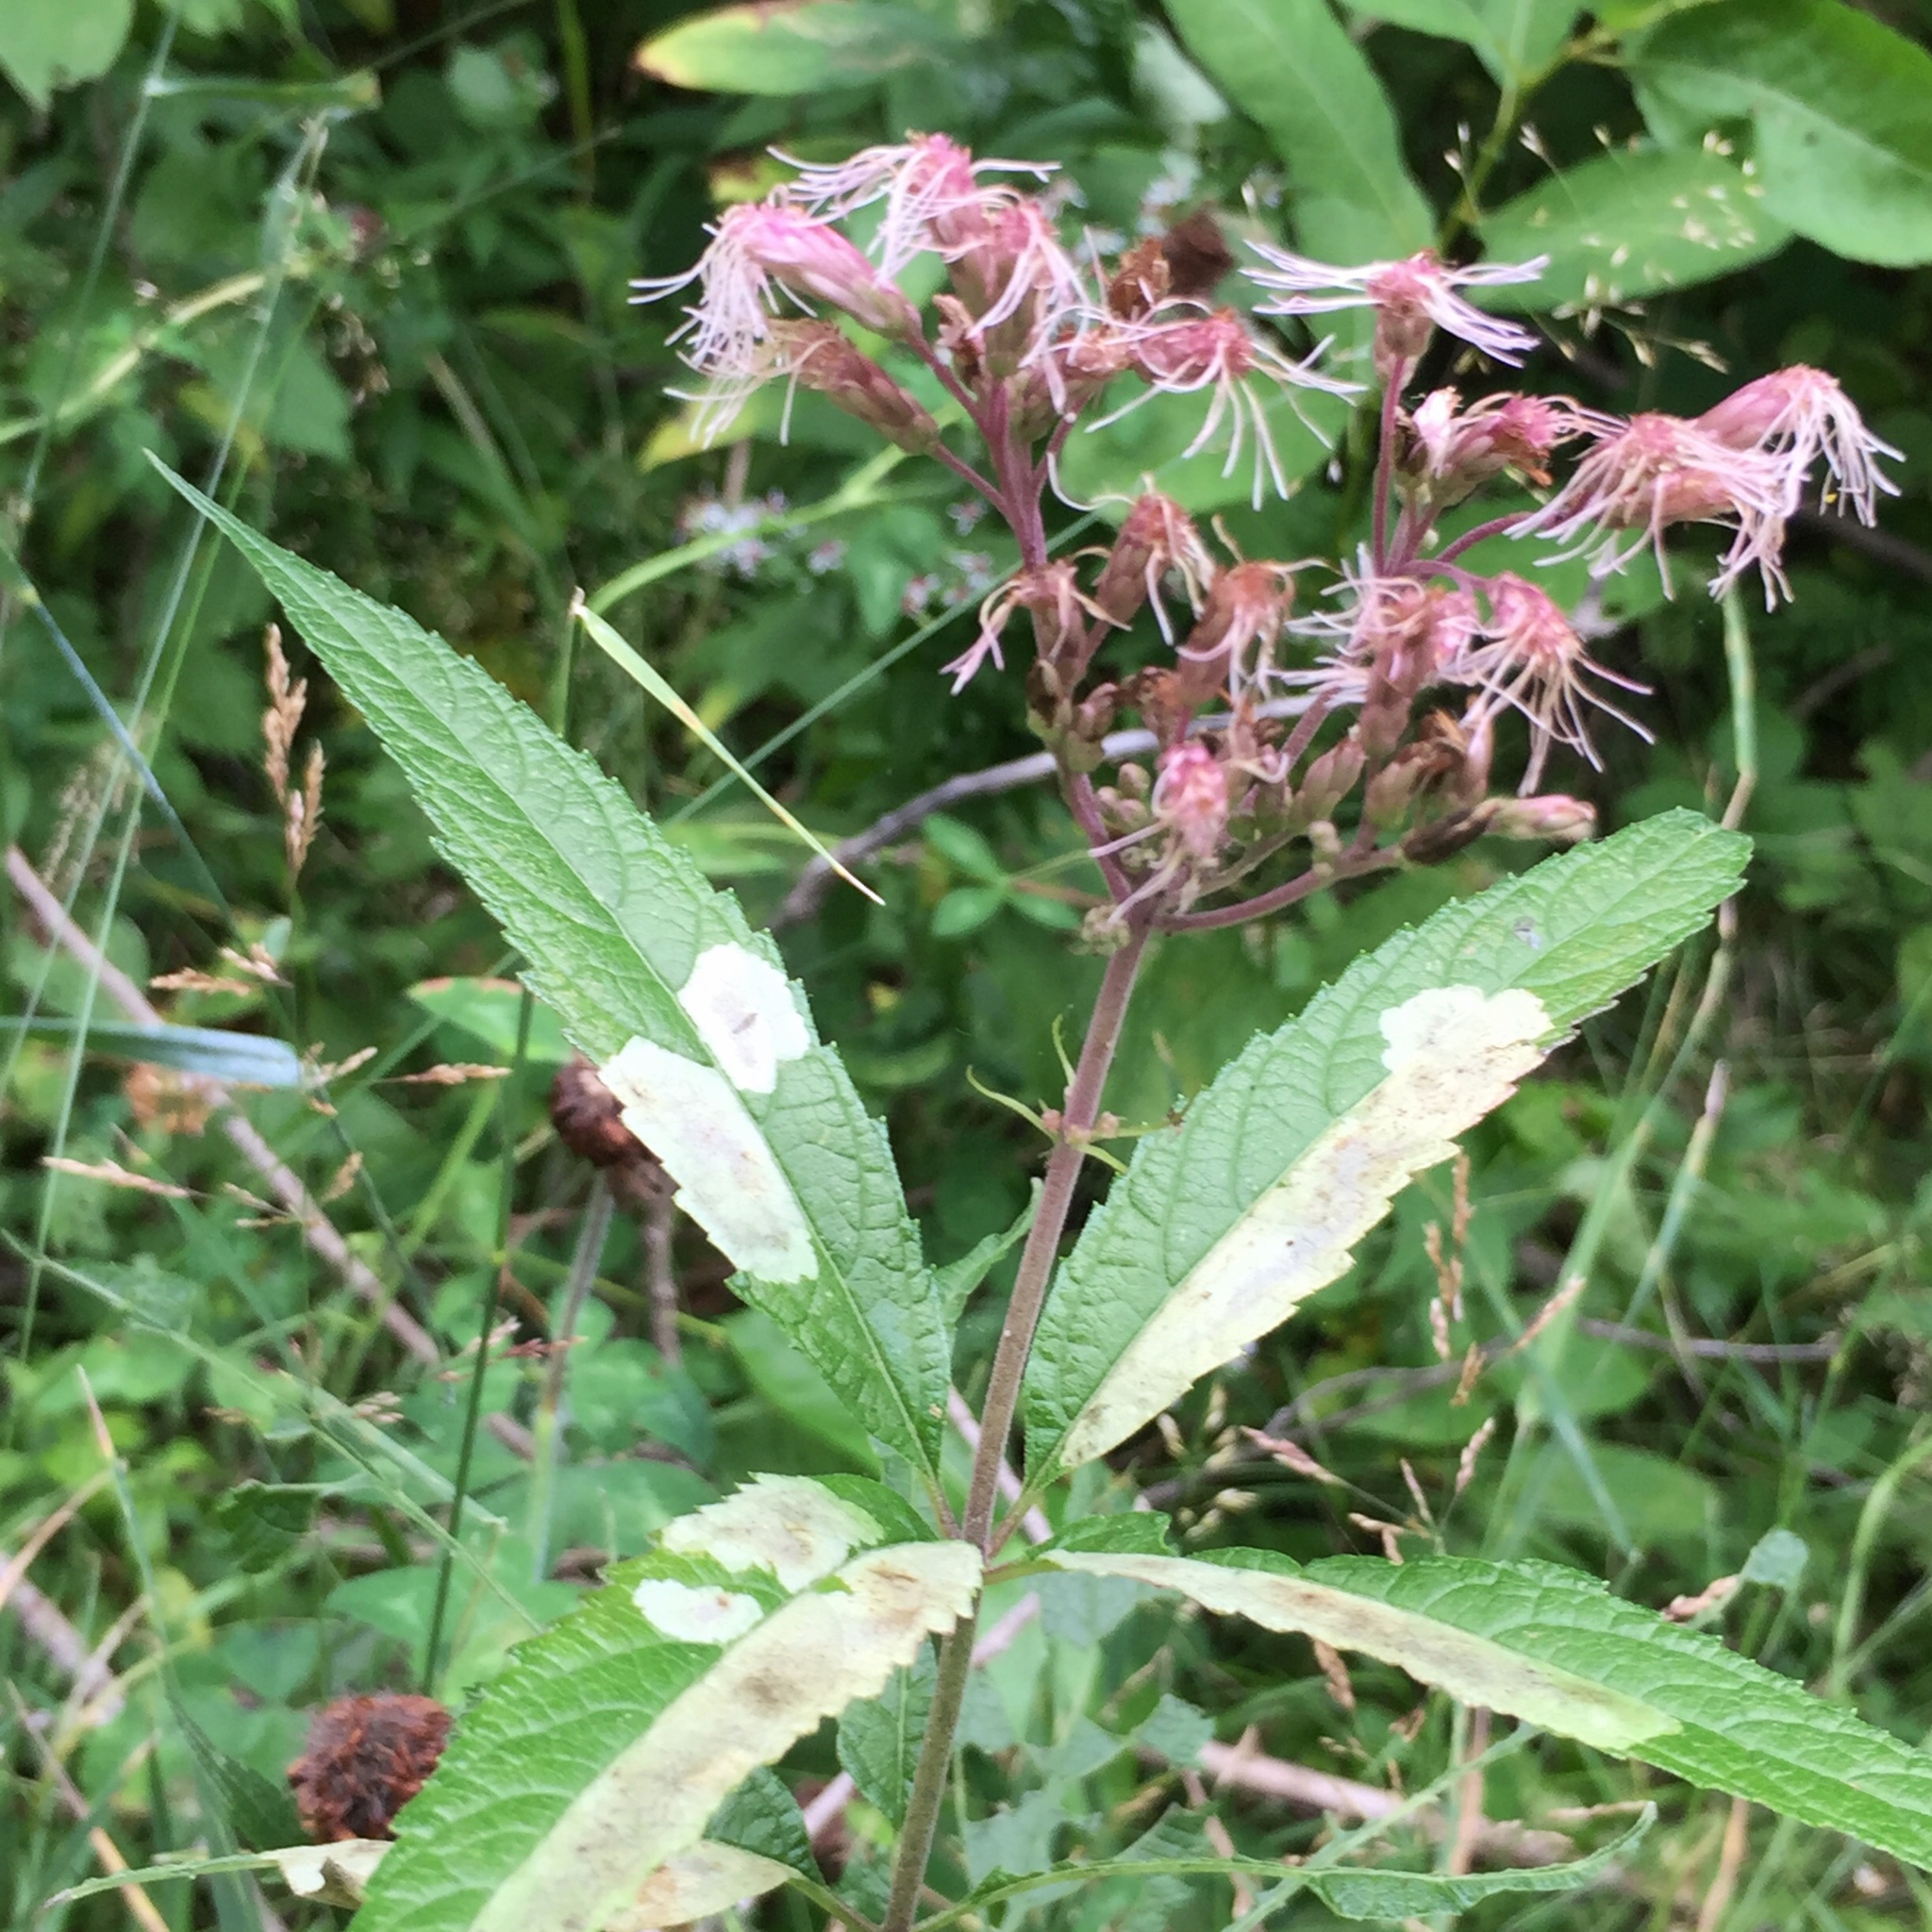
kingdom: Plantae
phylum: Tracheophyta
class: Magnoliopsida
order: Asterales
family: Asteraceae
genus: Eutrochium
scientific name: Eutrochium maculatum
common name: Spotted joe pye weed
